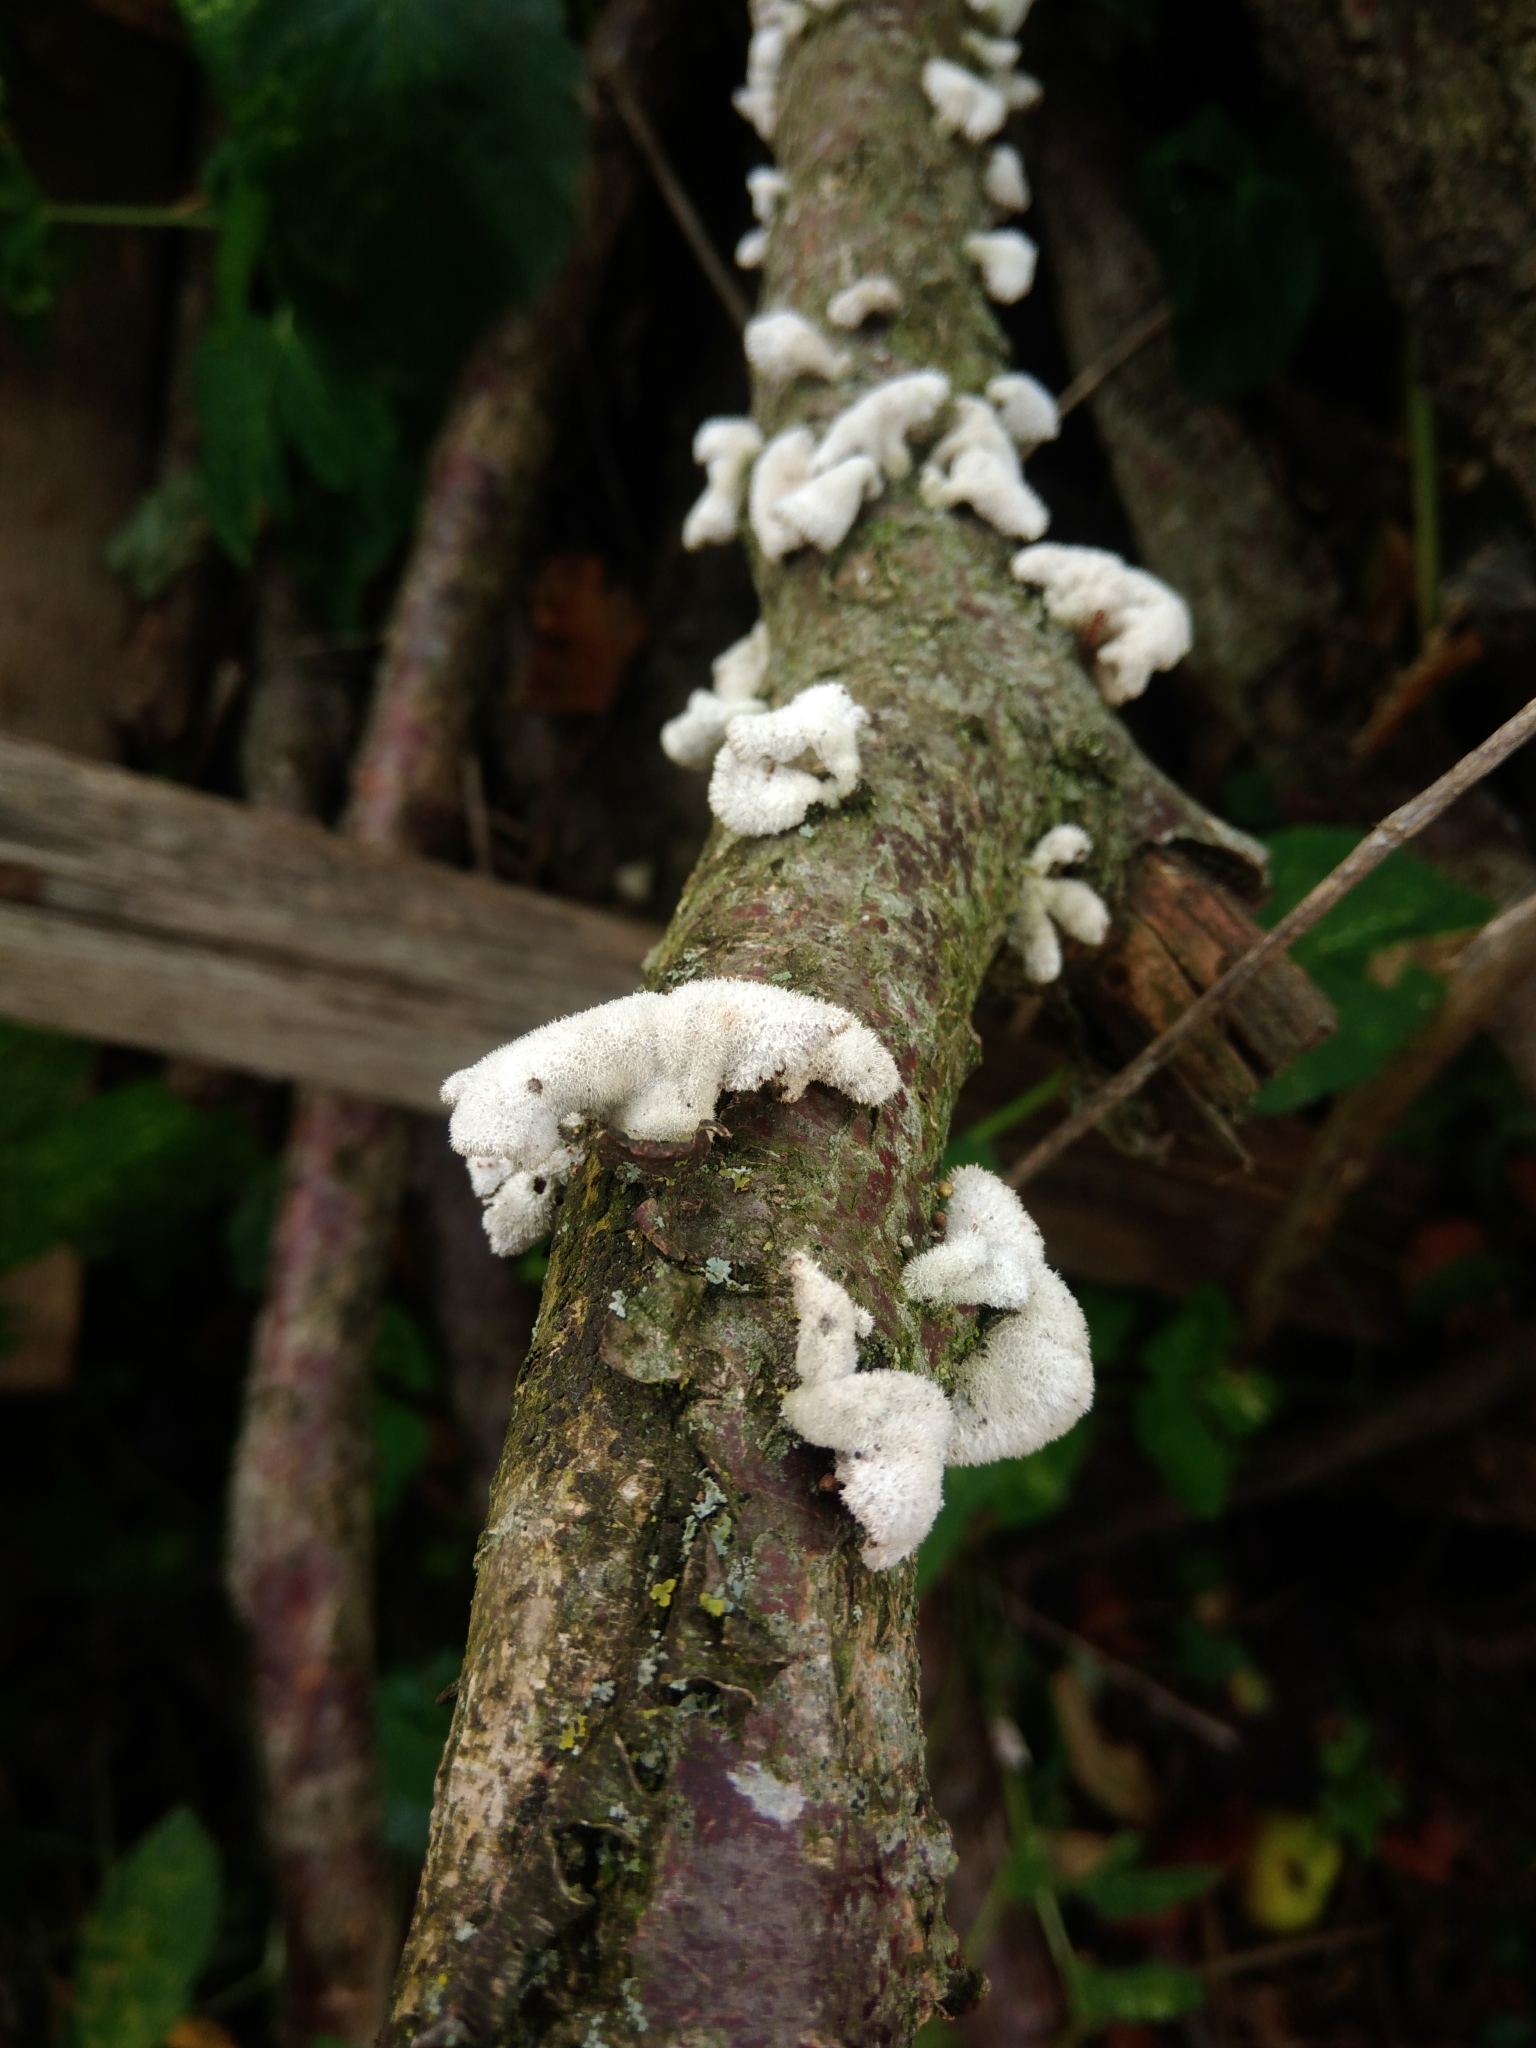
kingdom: Fungi
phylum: Basidiomycota
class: Agaricomycetes
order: Agaricales
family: Schizophyllaceae
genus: Schizophyllum
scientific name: Schizophyllum commune
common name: Common porecrust
